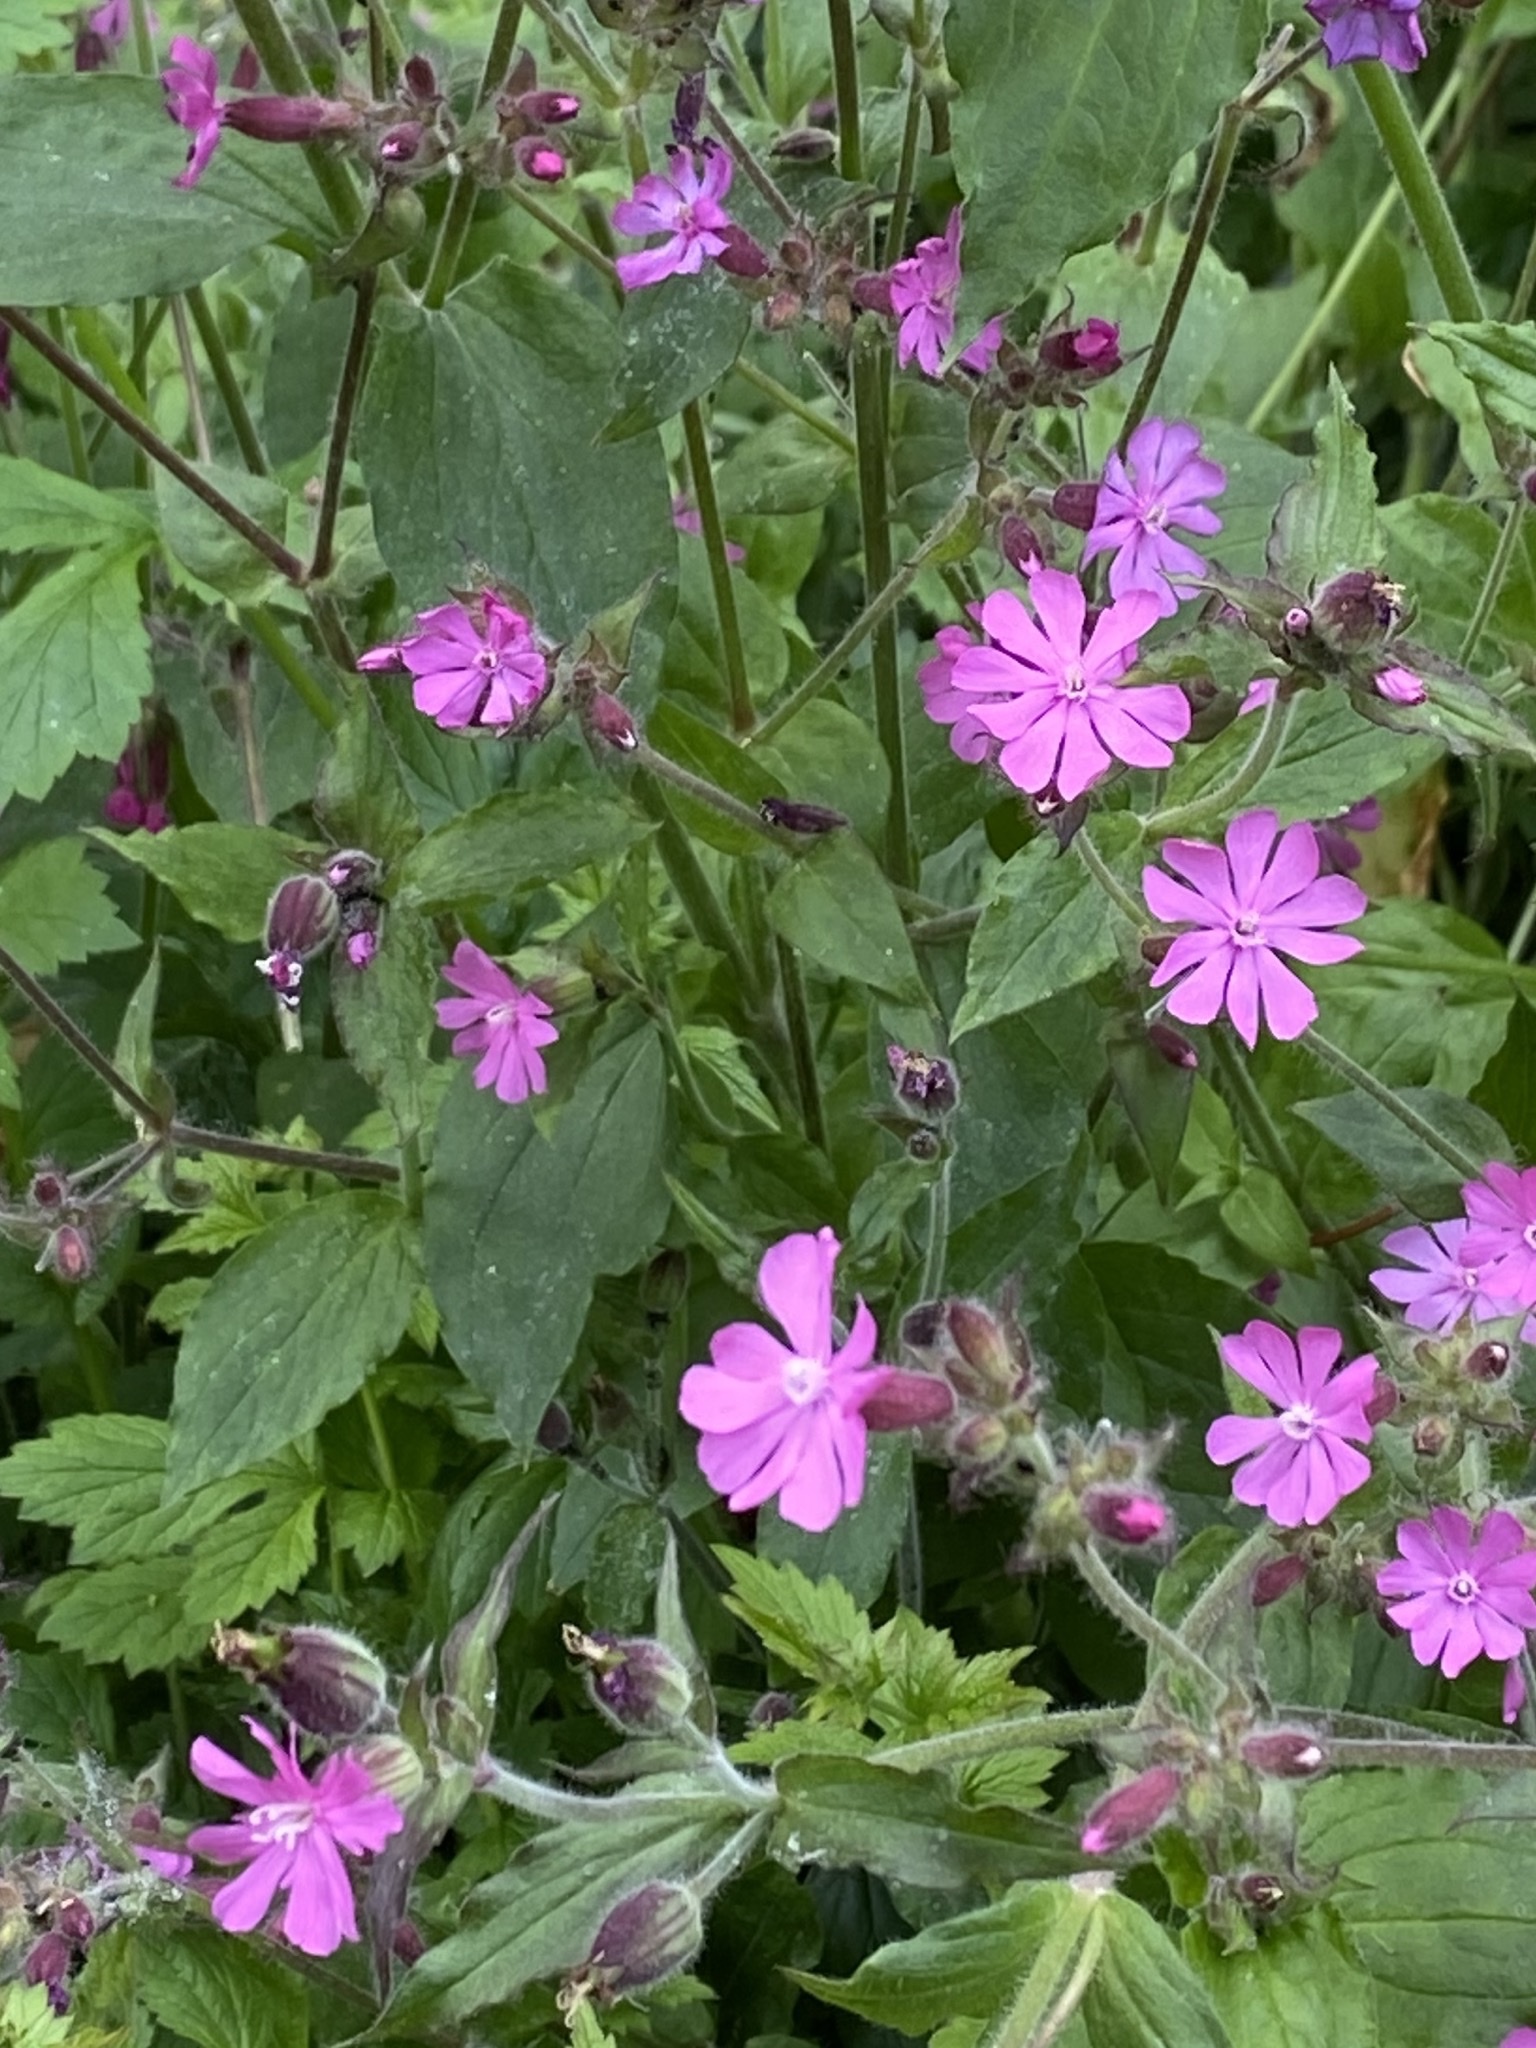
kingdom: Plantae
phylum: Tracheophyta
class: Magnoliopsida
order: Caryophyllales
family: Caryophyllaceae
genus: Silene
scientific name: Silene dioica
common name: Red campion
